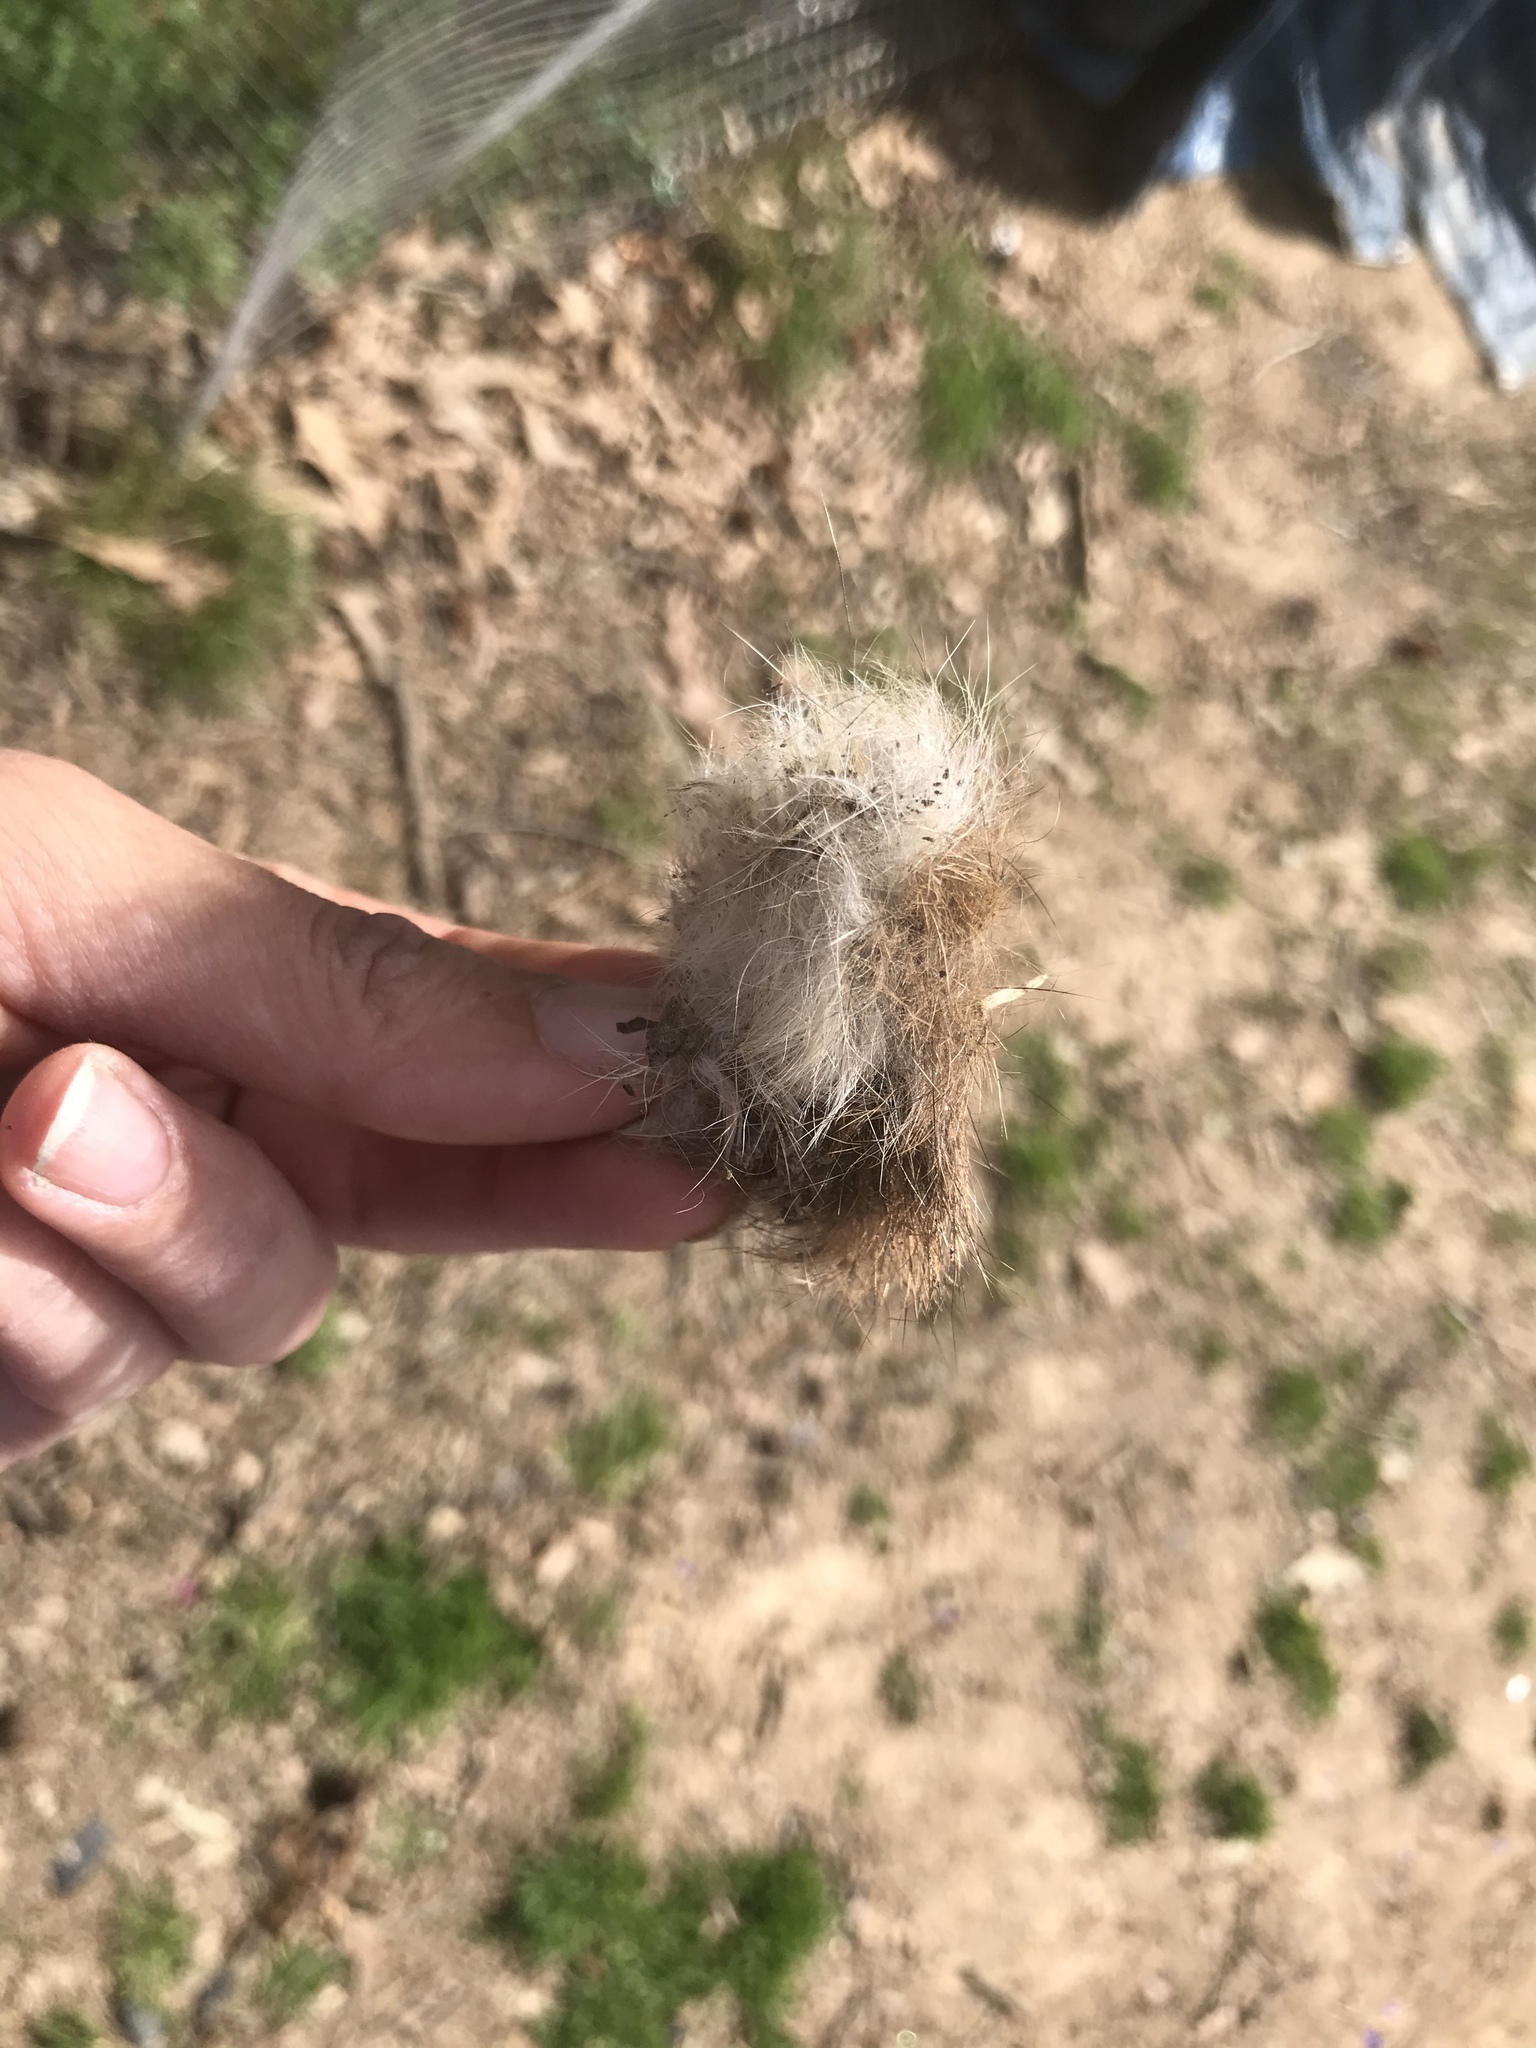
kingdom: Animalia
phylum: Chordata
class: Mammalia
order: Lagomorpha
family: Leporidae
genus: Sylvilagus
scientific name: Sylvilagus floridanus
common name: Eastern cottontail
